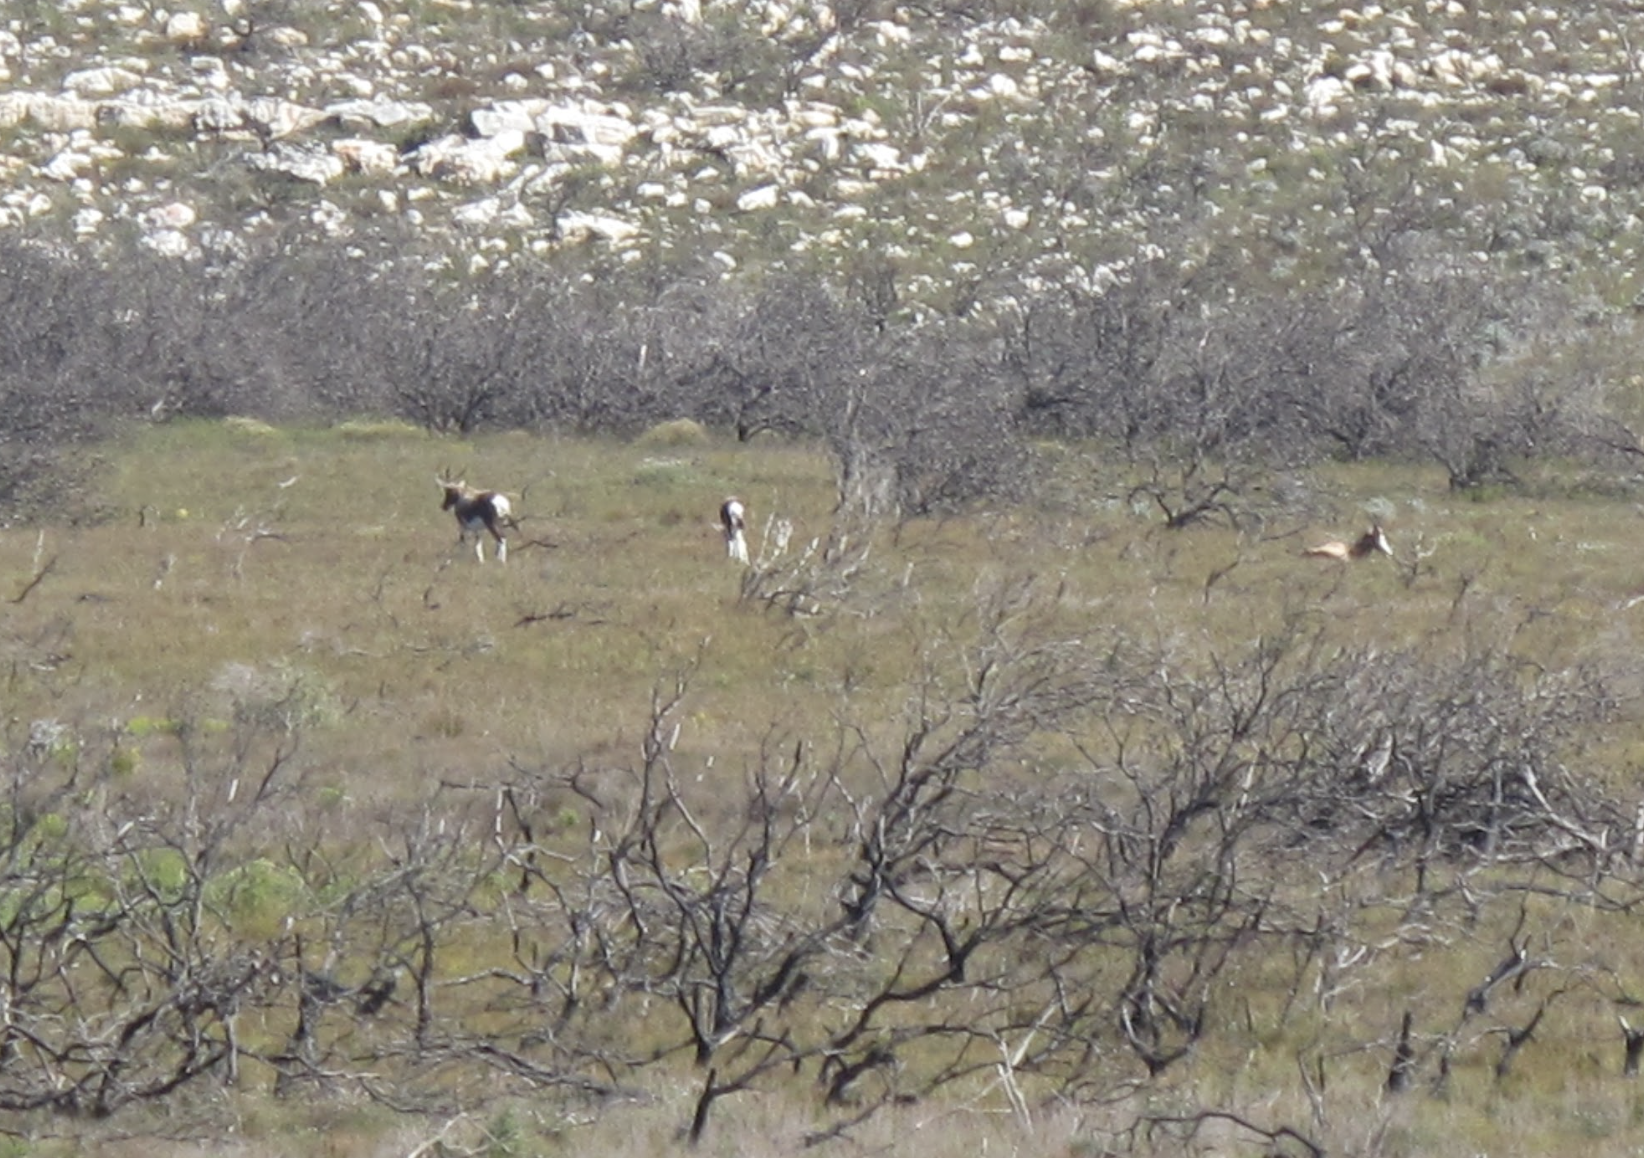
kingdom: Animalia
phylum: Chordata
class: Mammalia
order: Artiodactyla
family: Bovidae
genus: Damaliscus
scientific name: Damaliscus pygargus
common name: Bontebok
